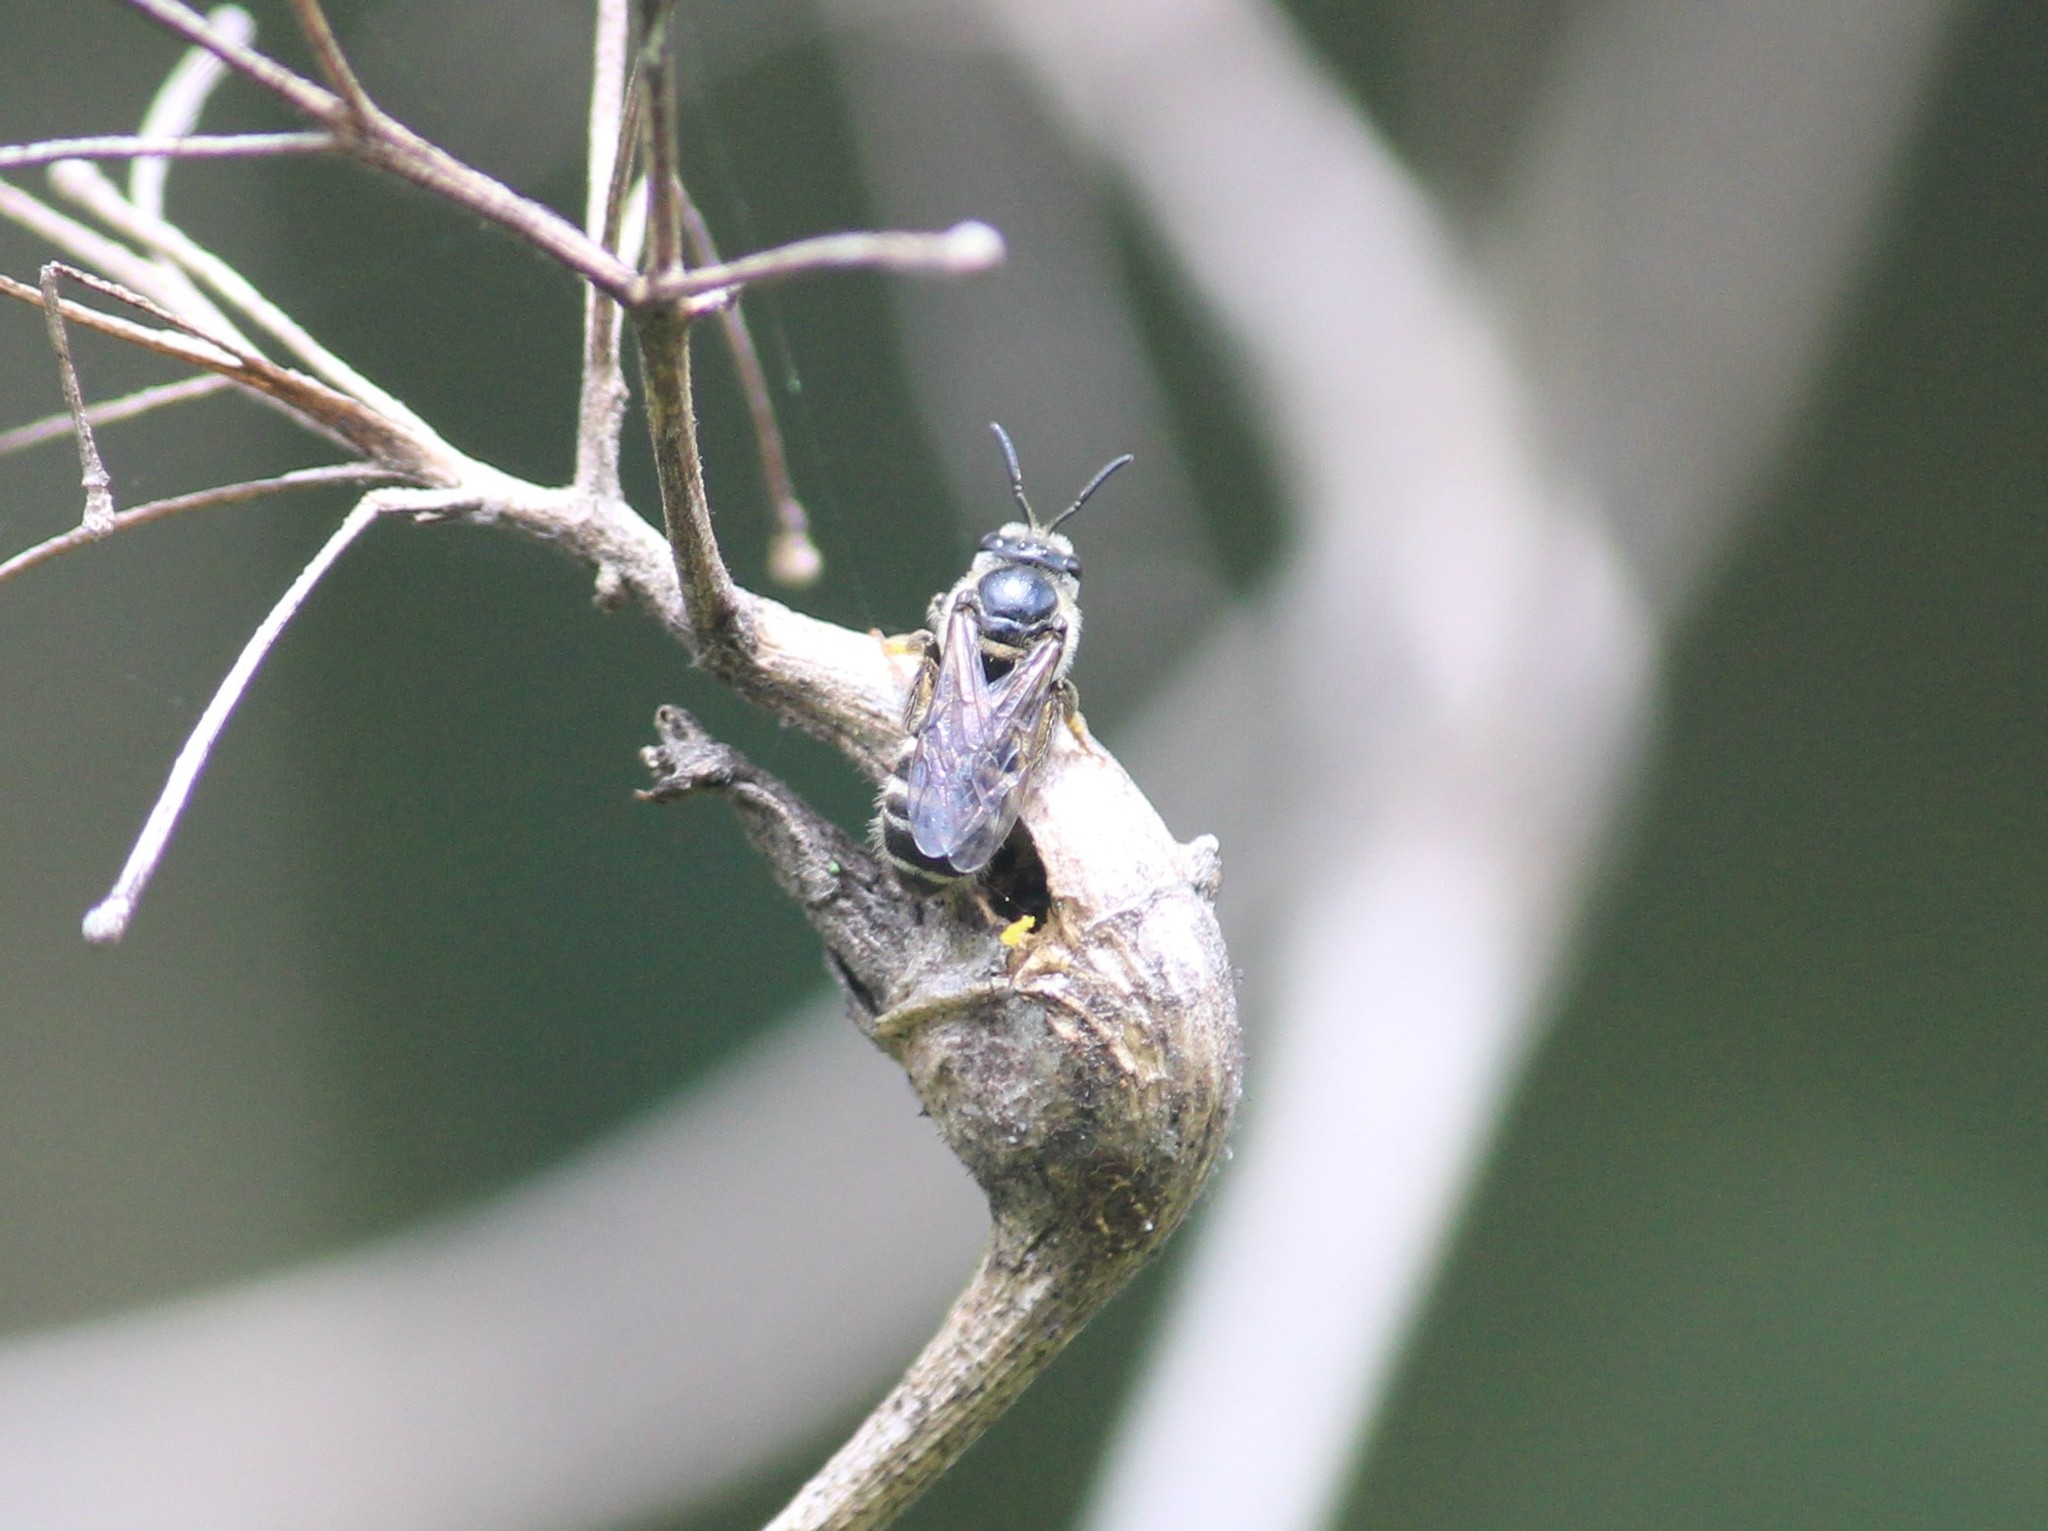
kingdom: Animalia
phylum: Arthropoda
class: Insecta
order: Hymenoptera
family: Halictidae
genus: Lasioglossum
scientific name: Lasioglossum albescens
